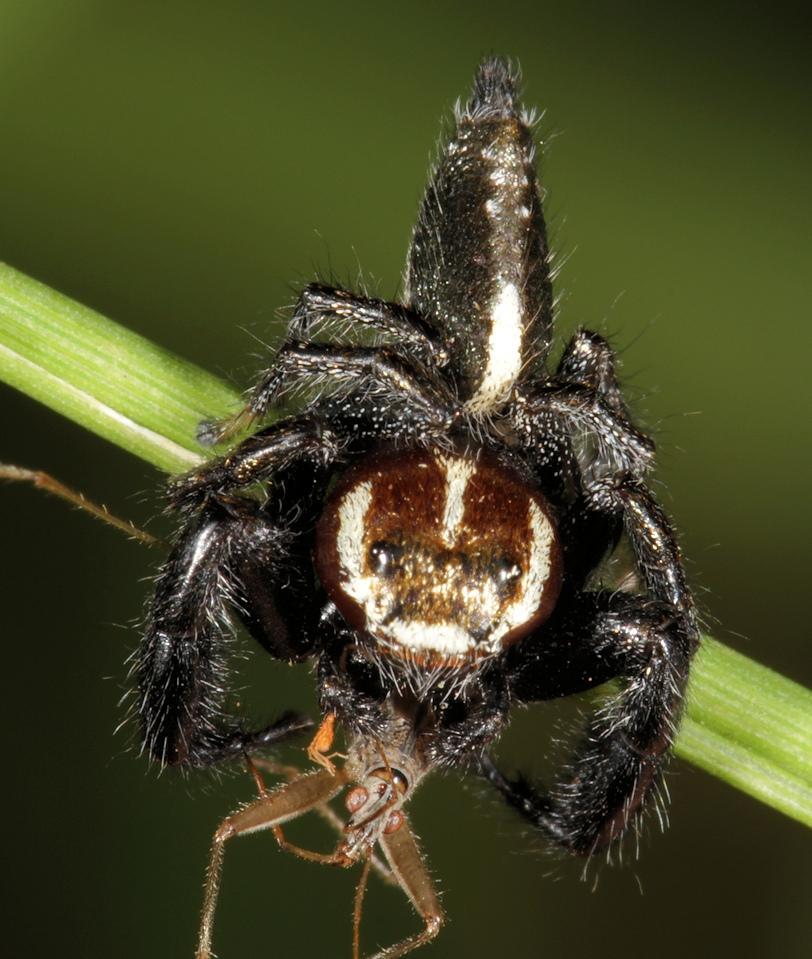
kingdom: Animalia
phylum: Arthropoda
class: Arachnida
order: Araneae
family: Salticidae
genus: Thyene
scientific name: Thyene bucculenta
